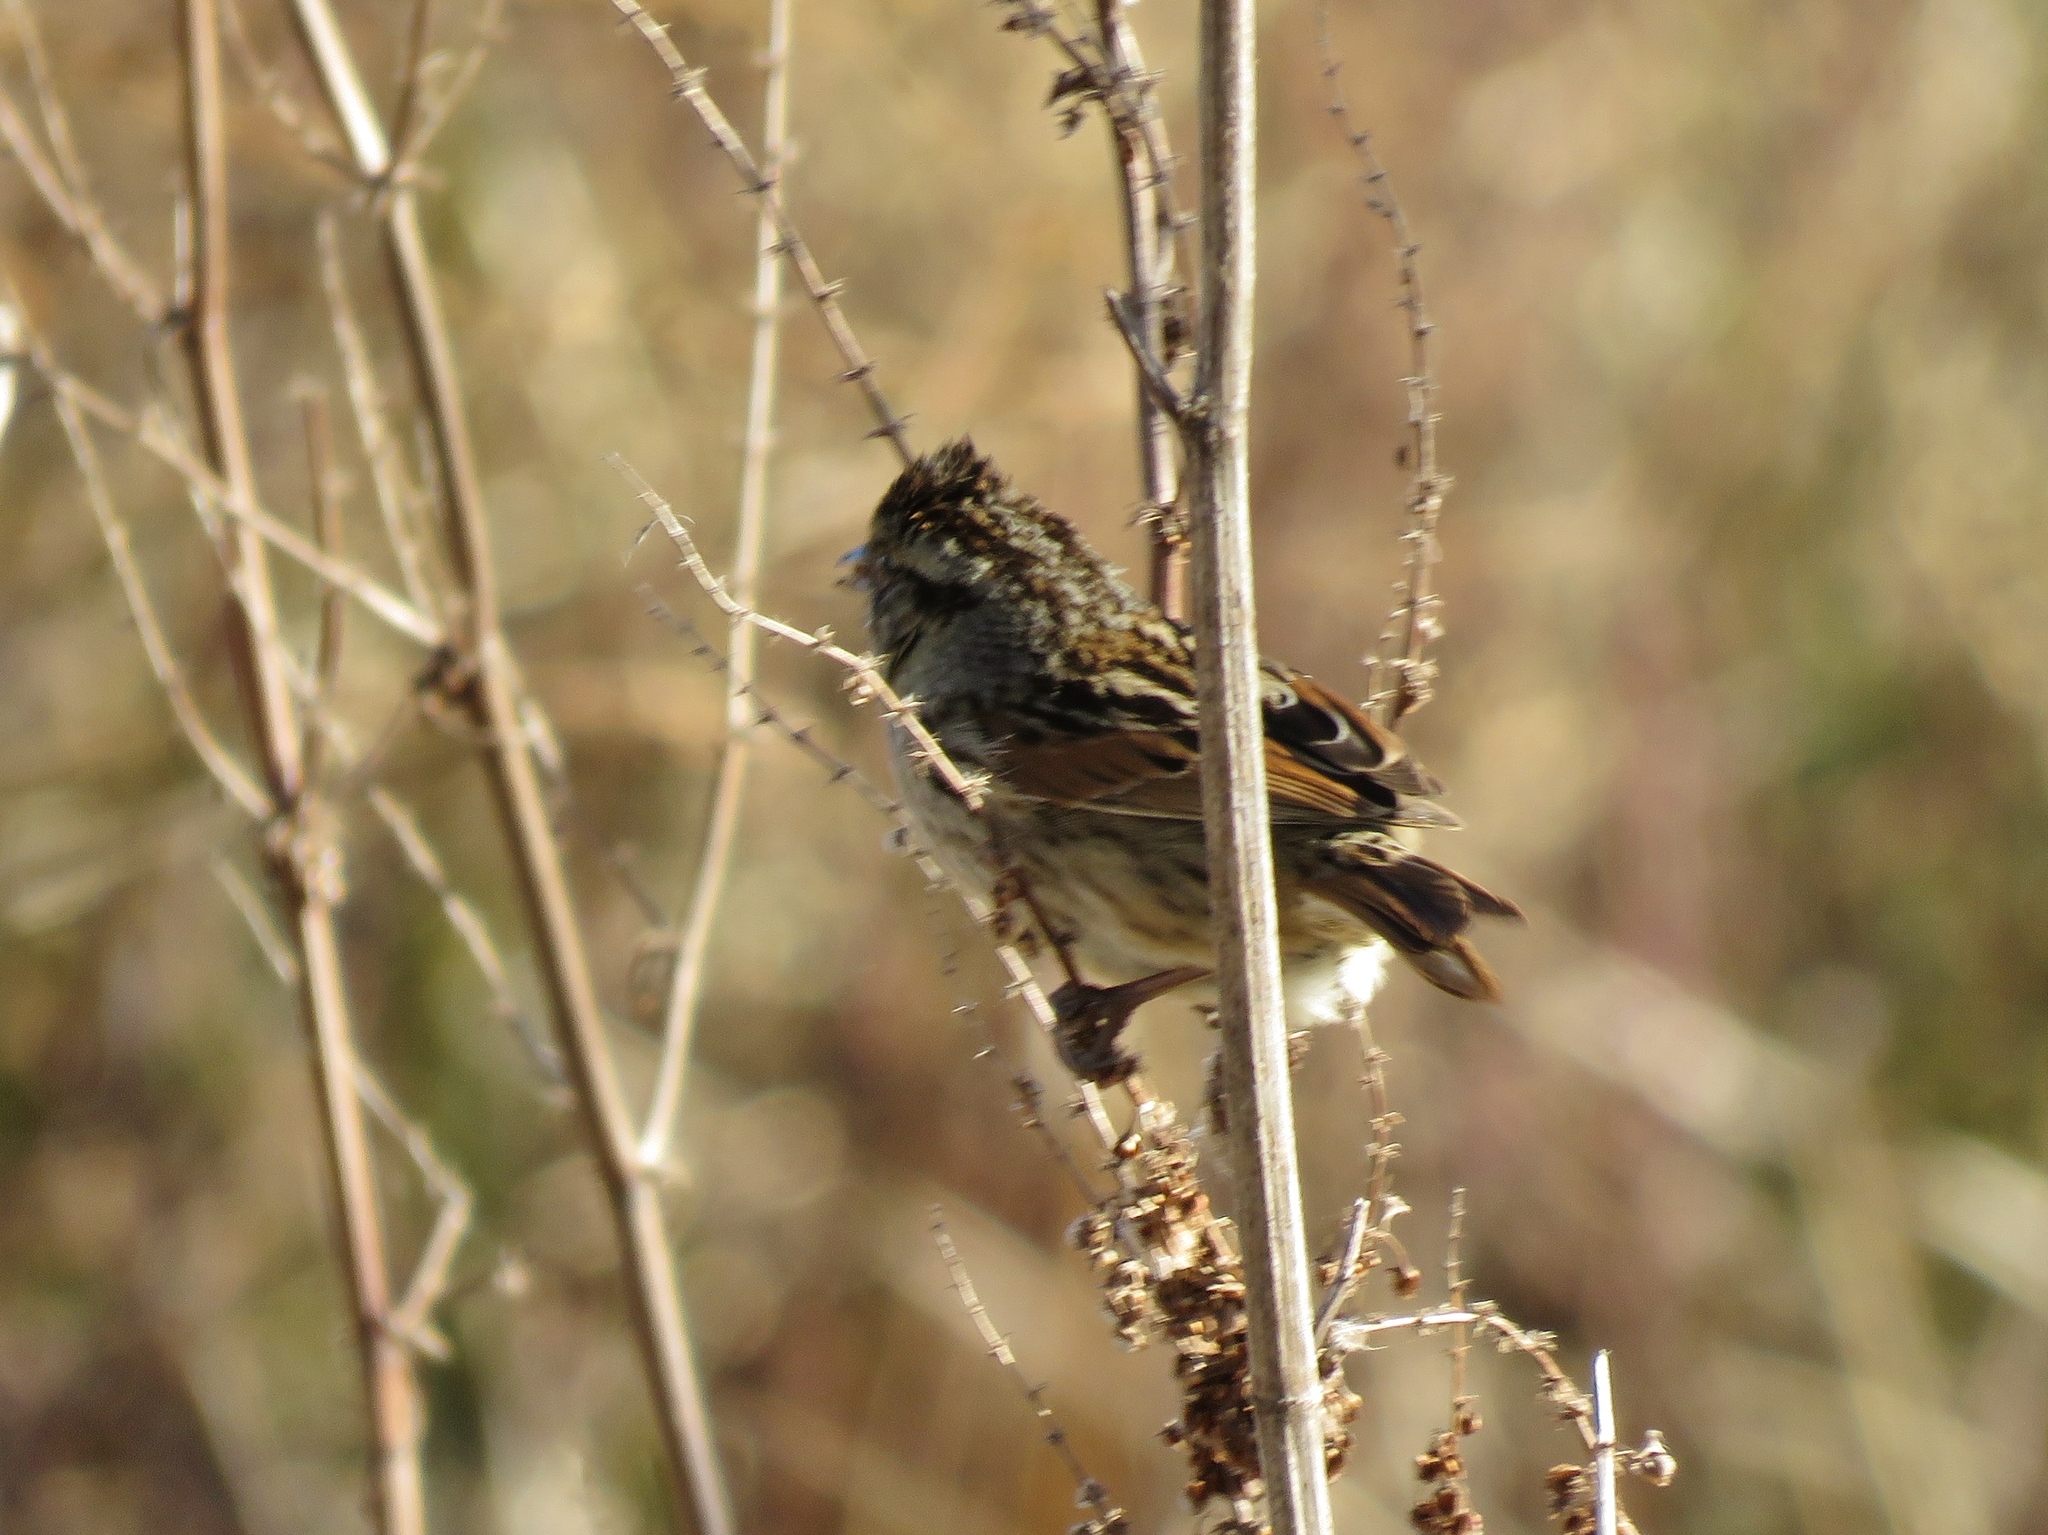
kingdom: Animalia
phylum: Chordata
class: Aves
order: Passeriformes
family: Passerellidae
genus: Melospiza
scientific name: Melospiza georgiana
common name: Swamp sparrow
